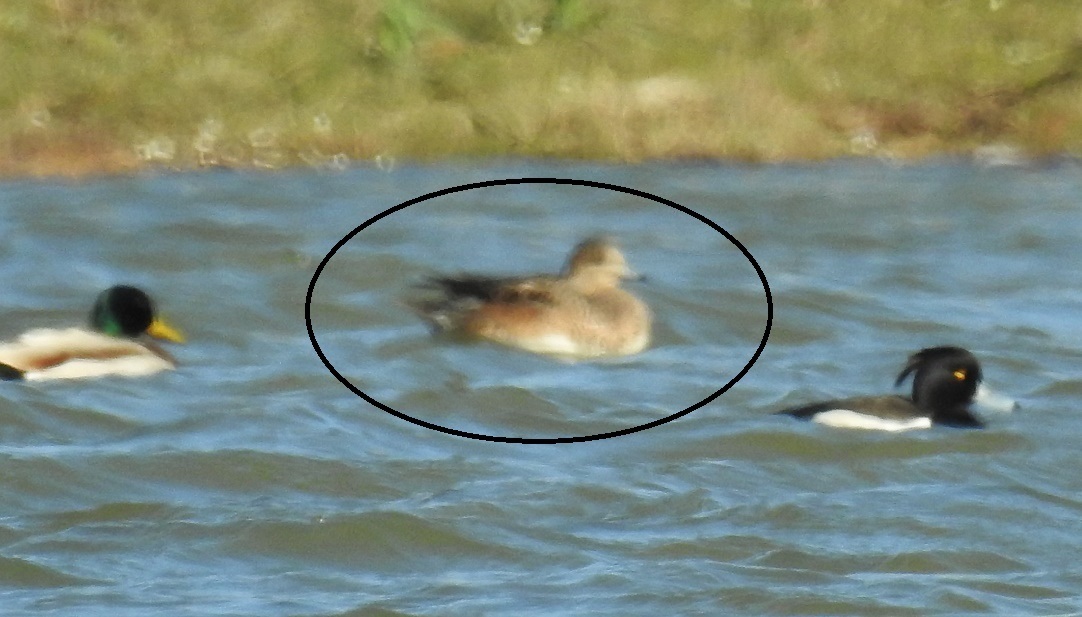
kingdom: Animalia
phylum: Chordata
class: Aves
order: Anseriformes
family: Anatidae
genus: Mareca
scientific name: Mareca penelope
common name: Eurasian wigeon
